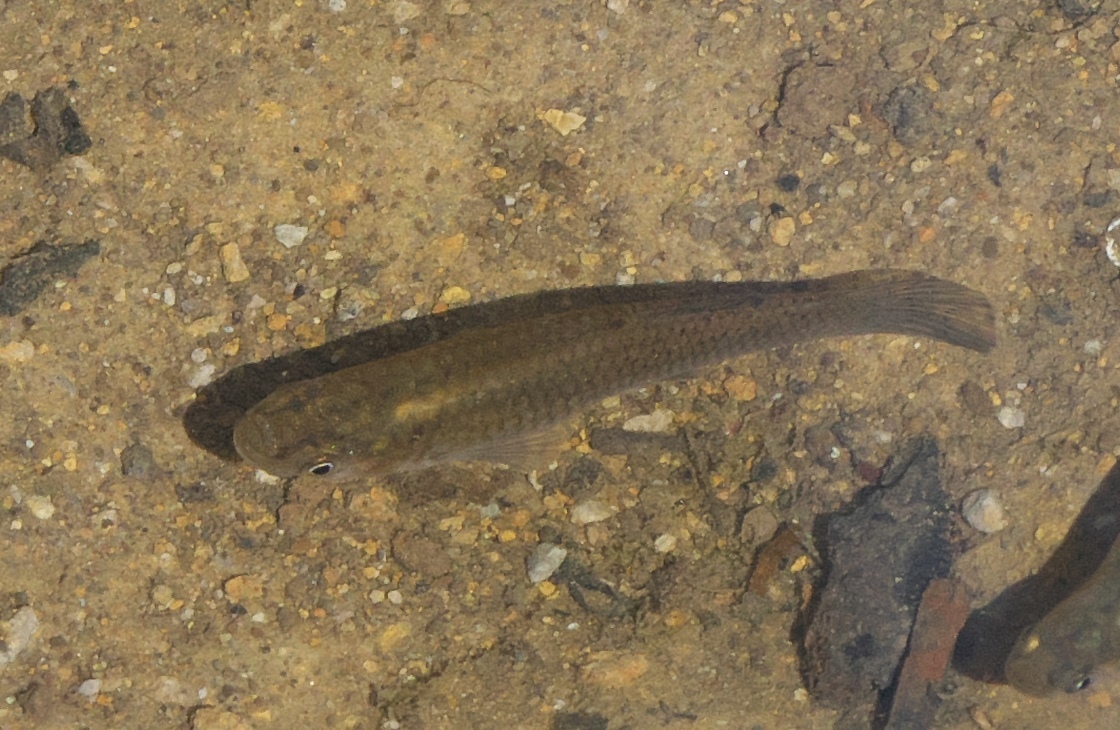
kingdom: Animalia
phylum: Chordata
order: Cyprinodontiformes
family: Poeciliidae
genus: Gambusia
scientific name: Gambusia affinis
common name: Mosquitofish
